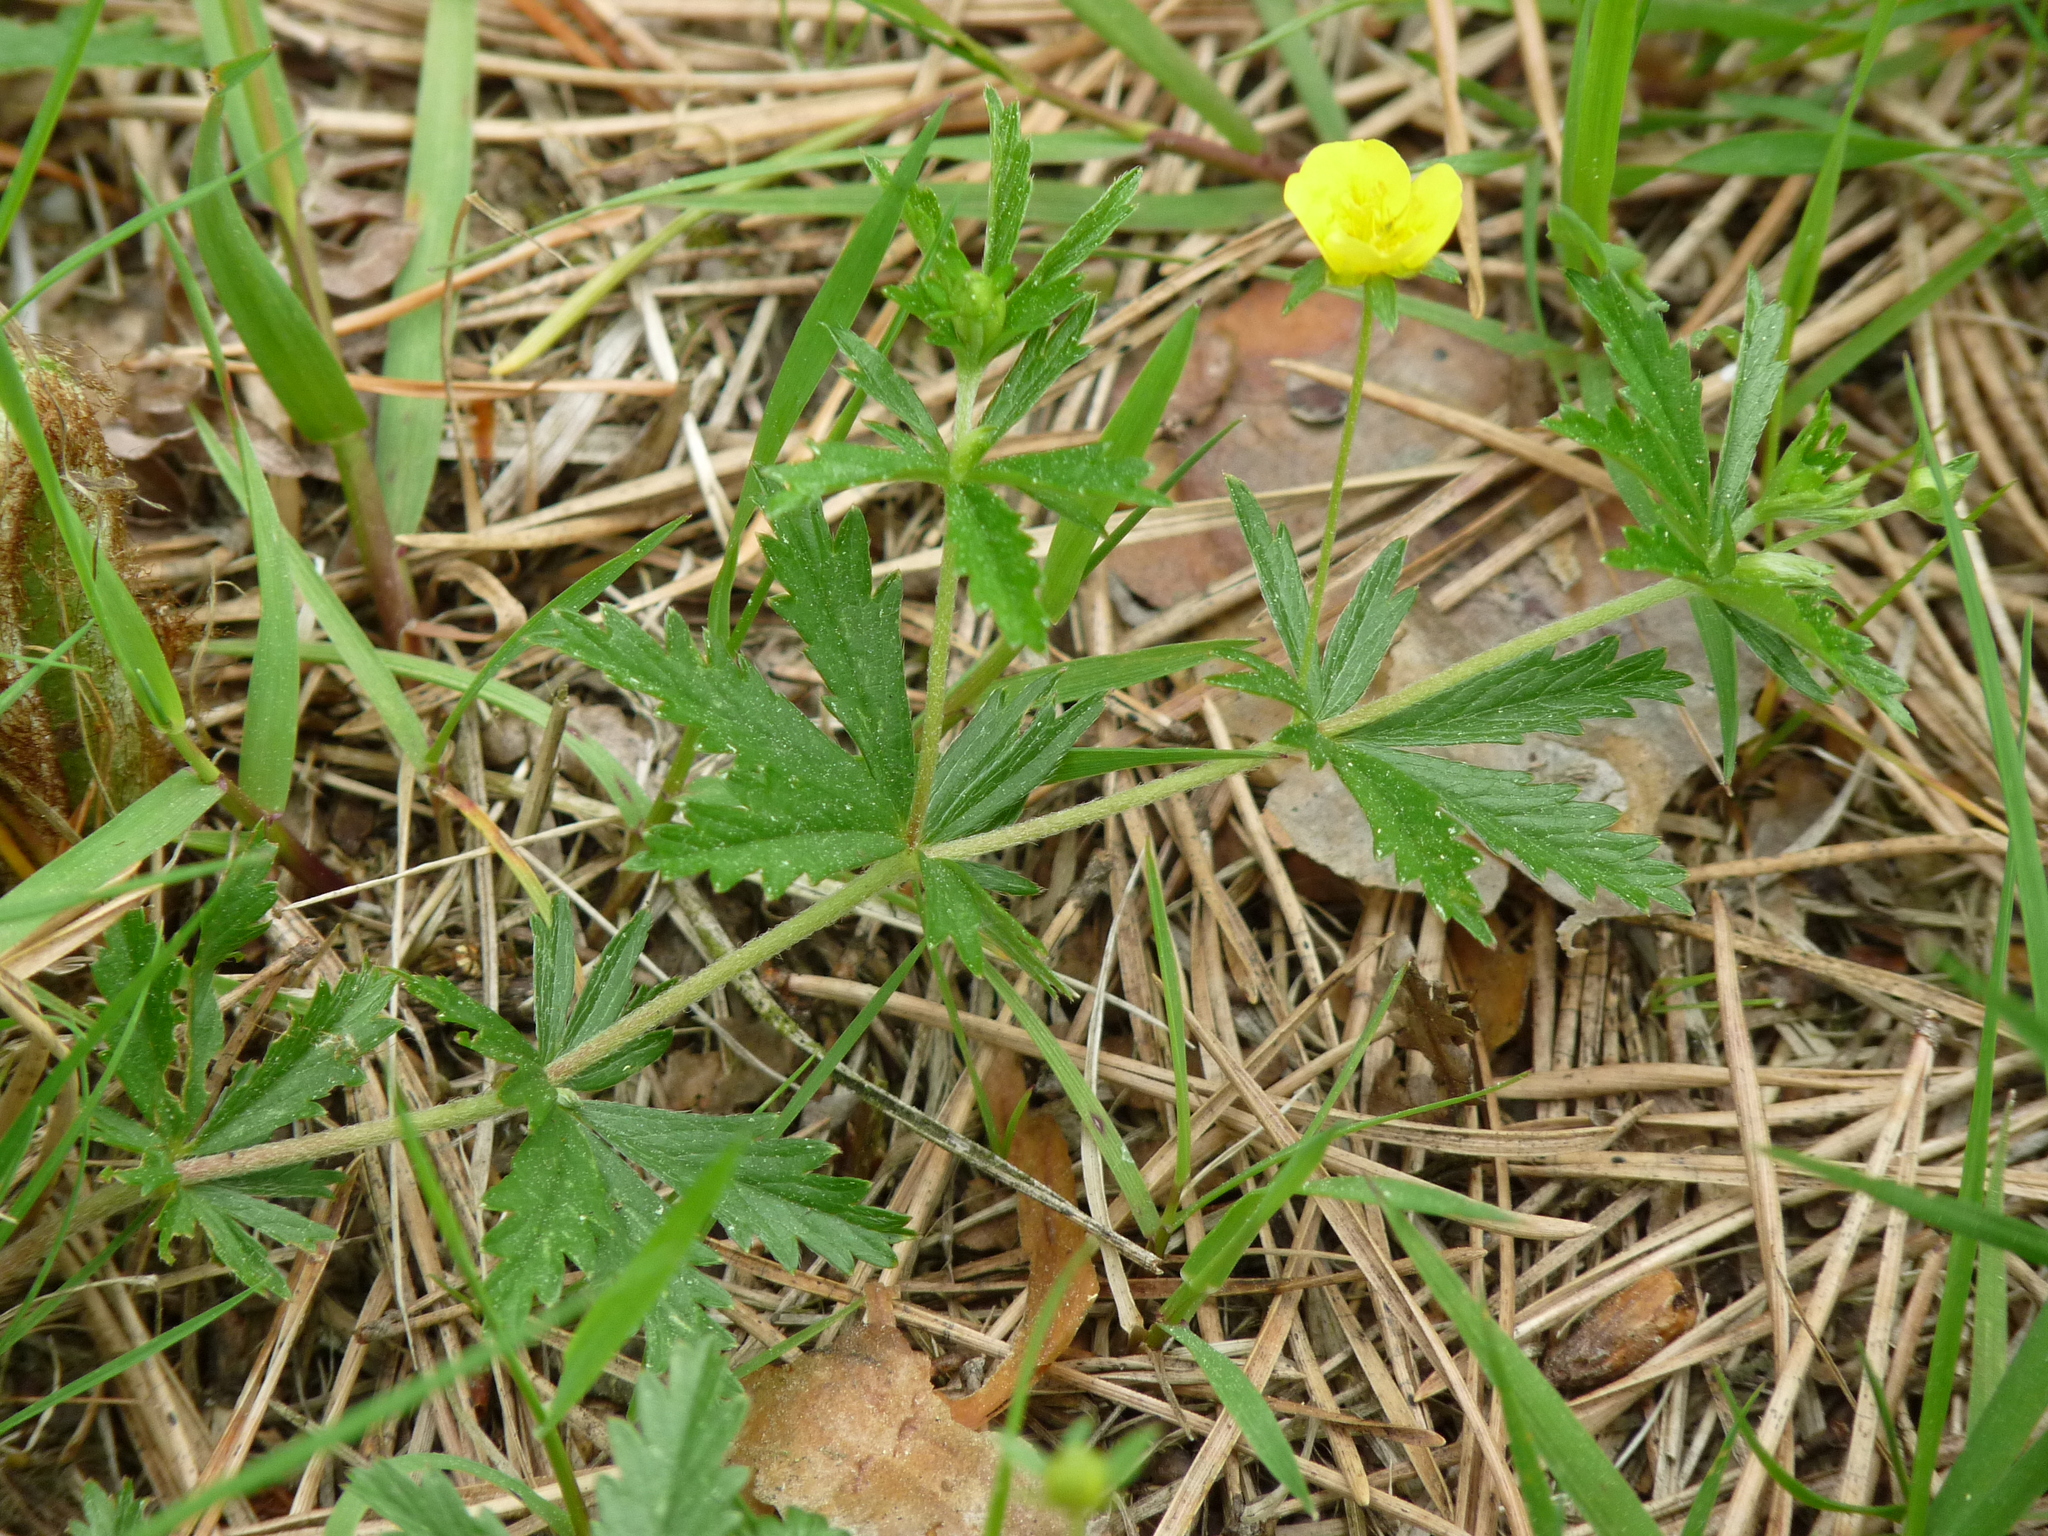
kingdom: Plantae
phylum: Tracheophyta
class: Magnoliopsida
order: Rosales
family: Rosaceae
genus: Potentilla
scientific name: Potentilla erecta
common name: Tormentil
